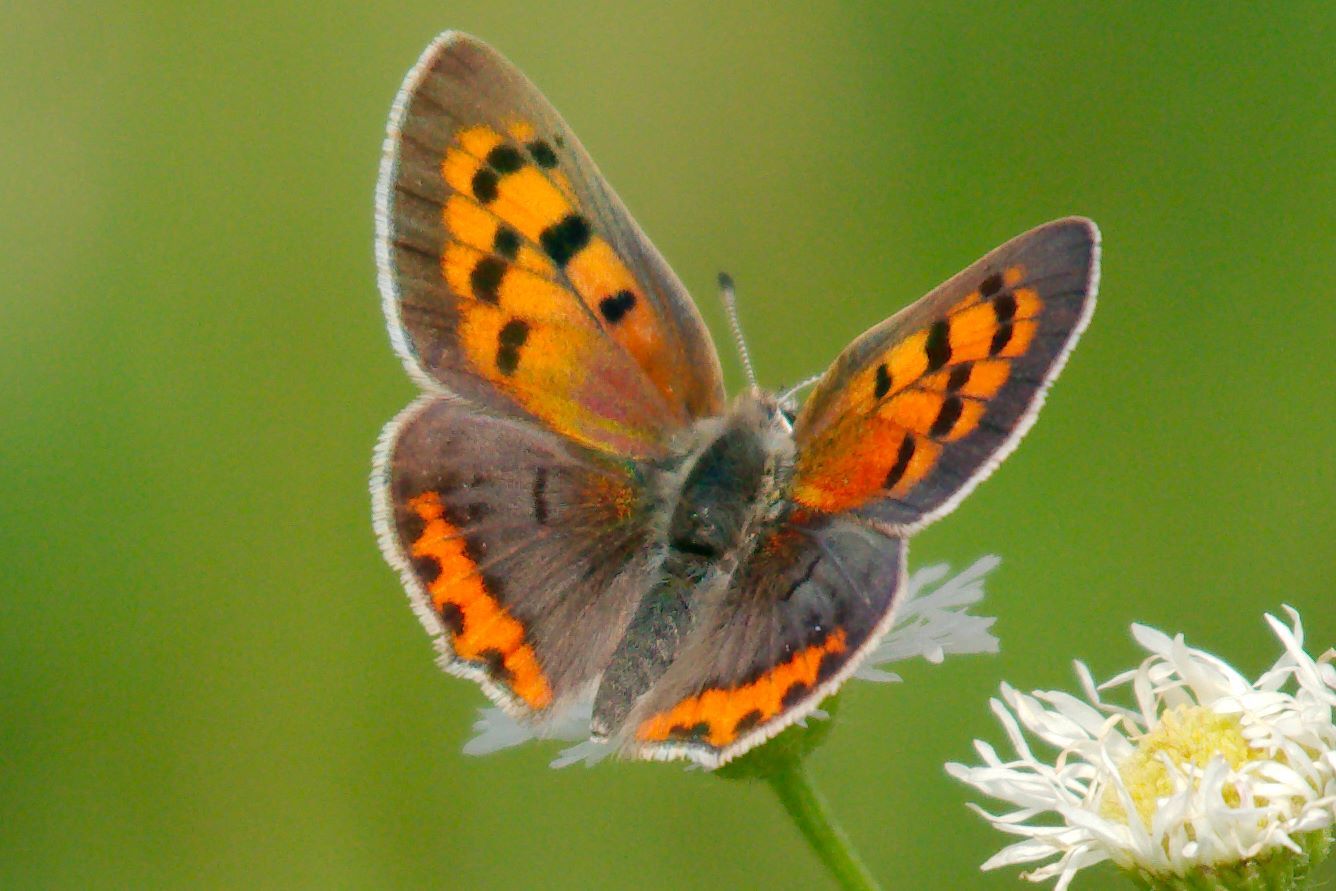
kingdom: Animalia
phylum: Arthropoda
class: Insecta
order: Lepidoptera
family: Lycaenidae
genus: Lycaena
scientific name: Lycaena hypophlaeas
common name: American copper
